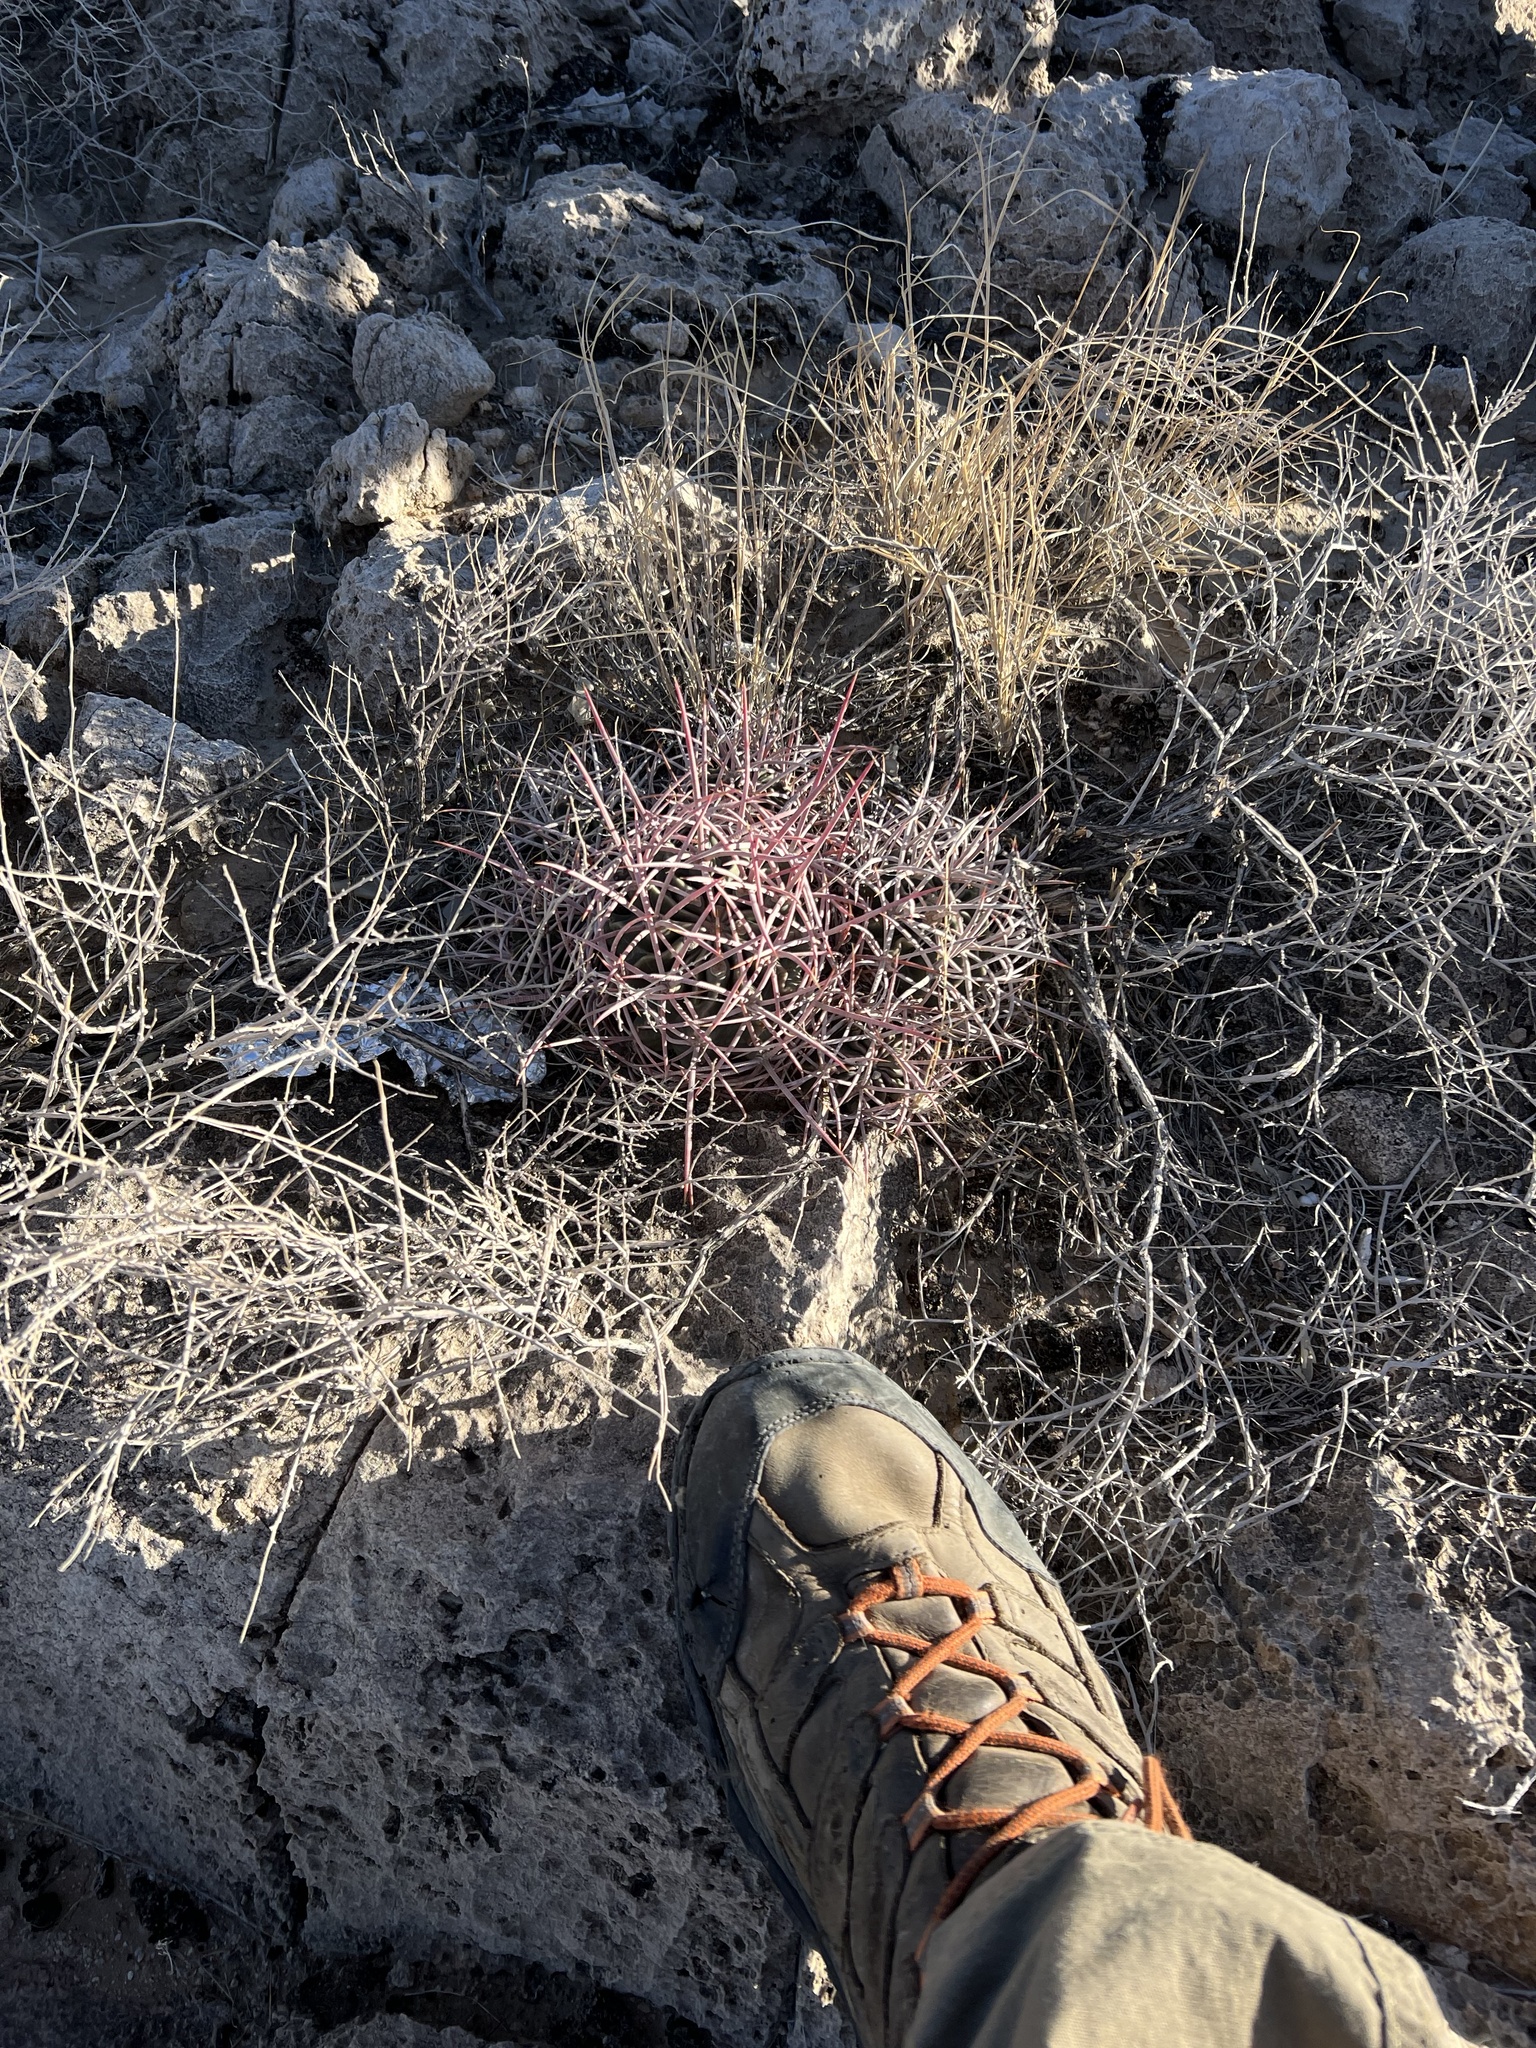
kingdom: Plantae
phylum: Tracheophyta
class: Magnoliopsida
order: Caryophyllales
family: Cactaceae
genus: Echinocactus
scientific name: Echinocactus polycephalus
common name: Cottontop cactus
